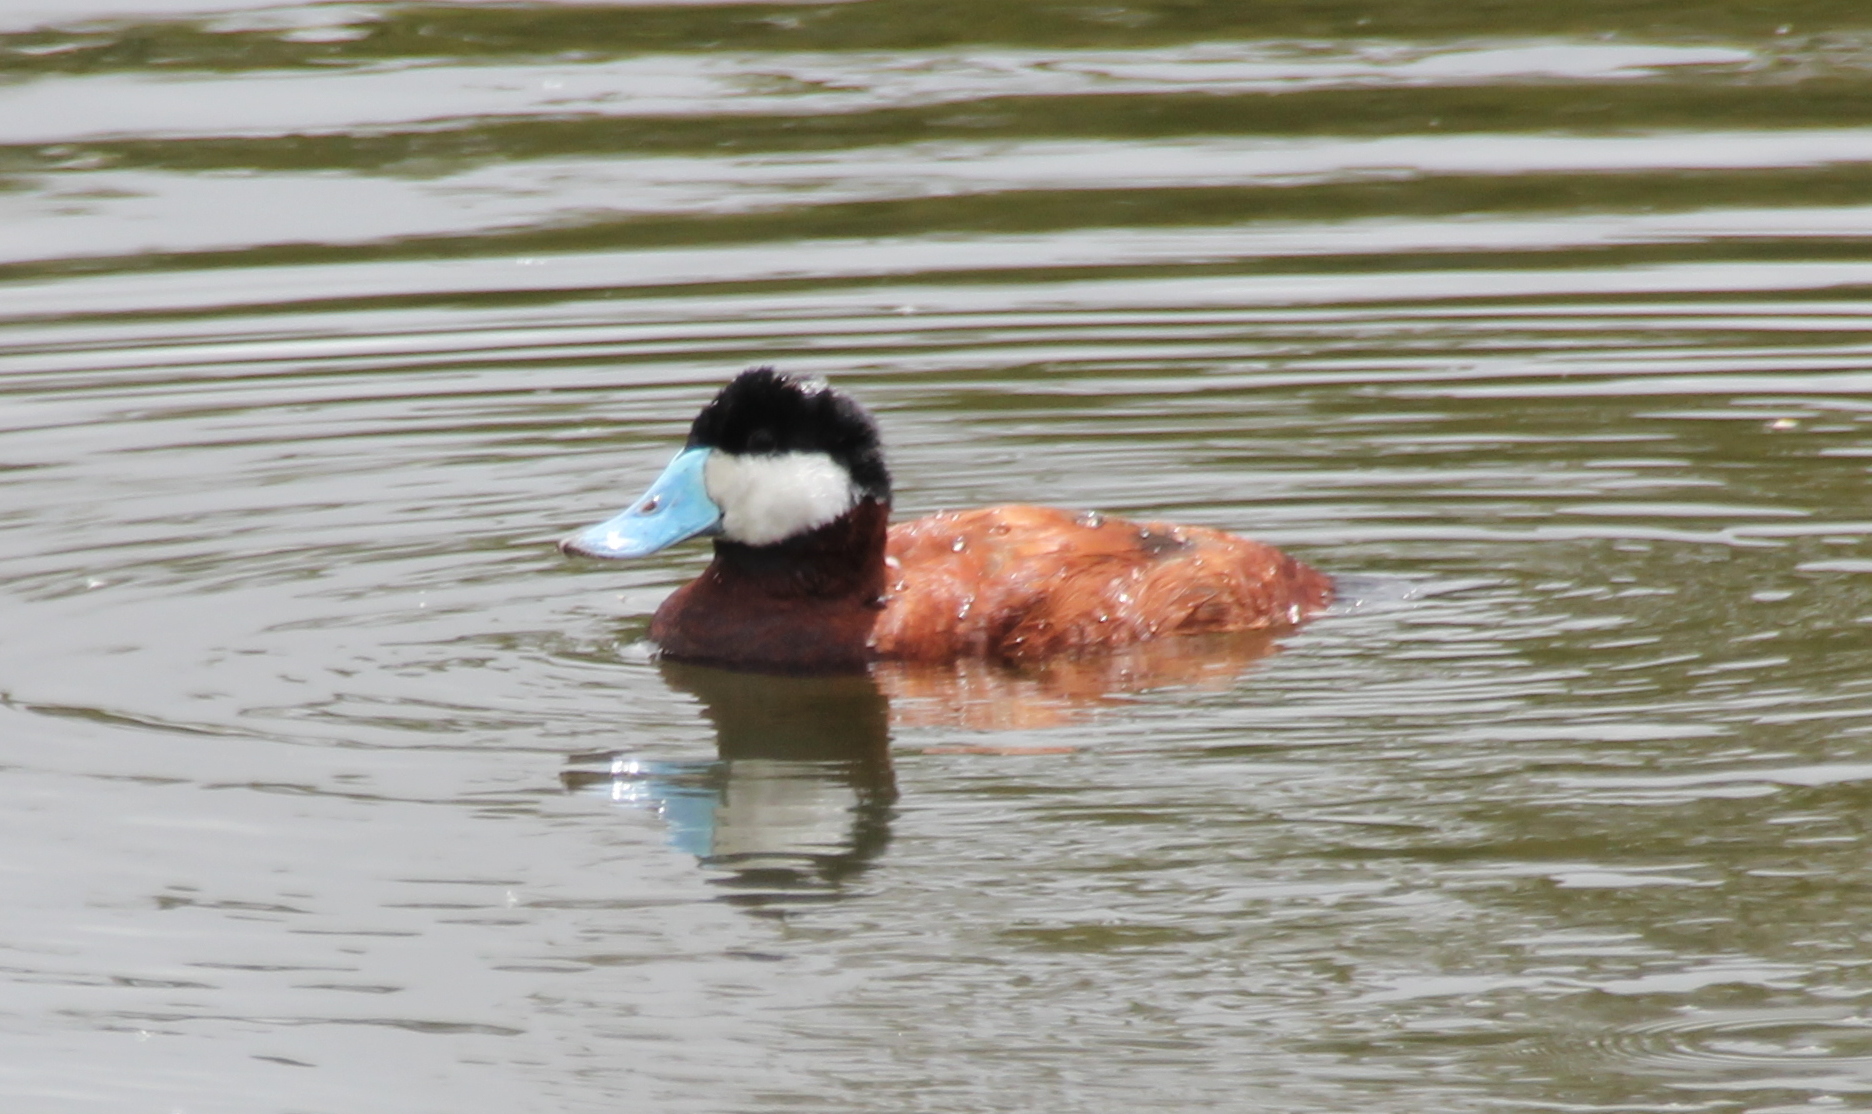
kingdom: Animalia
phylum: Chordata
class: Aves
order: Anseriformes
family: Anatidae
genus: Oxyura
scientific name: Oxyura jamaicensis
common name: Ruddy duck
